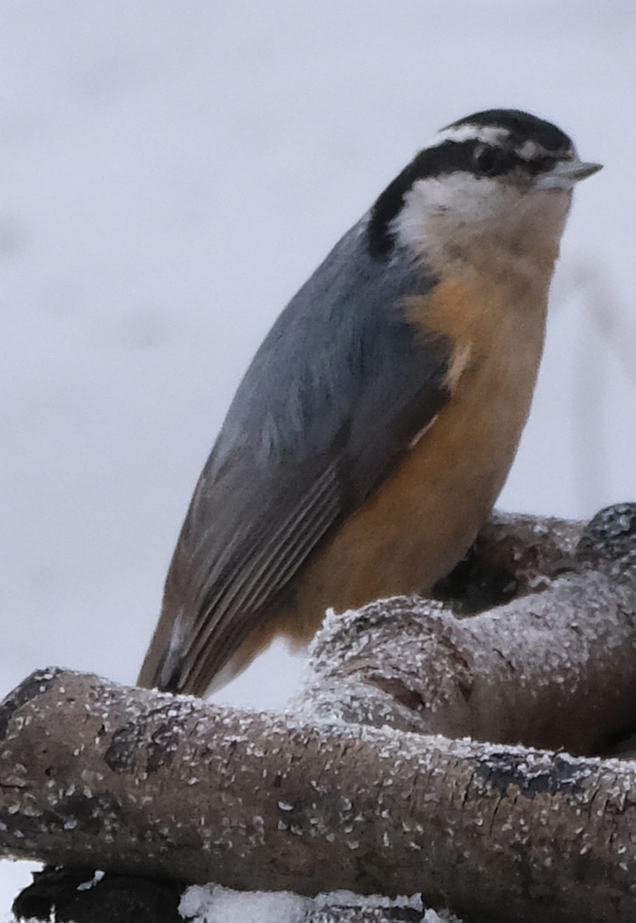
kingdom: Animalia
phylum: Chordata
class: Aves
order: Passeriformes
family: Sittidae
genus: Sitta
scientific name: Sitta canadensis
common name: Red-breasted nuthatch
